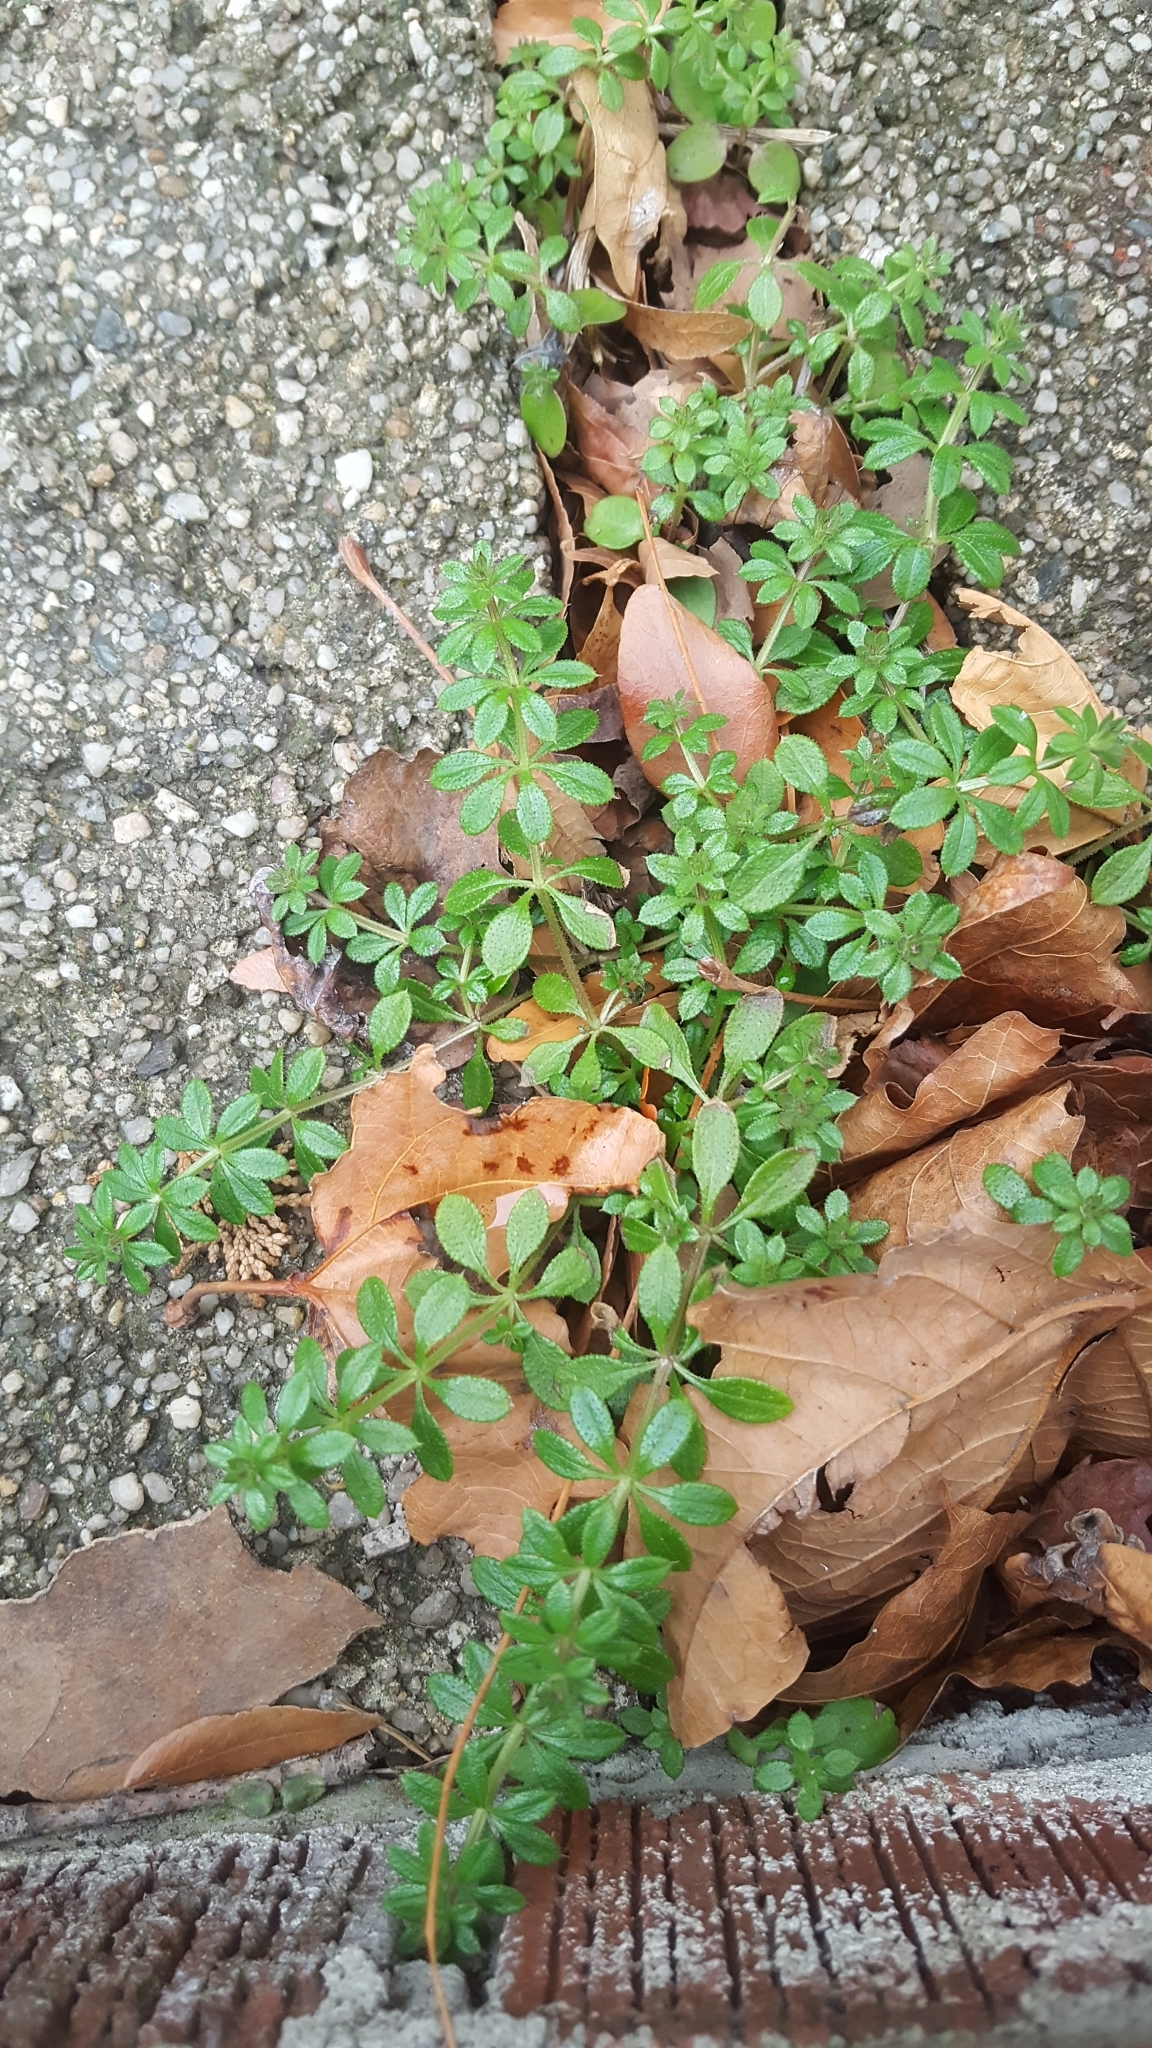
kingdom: Plantae
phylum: Tracheophyta
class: Magnoliopsida
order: Gentianales
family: Rubiaceae
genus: Galium
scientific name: Galium aparine
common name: Cleavers
